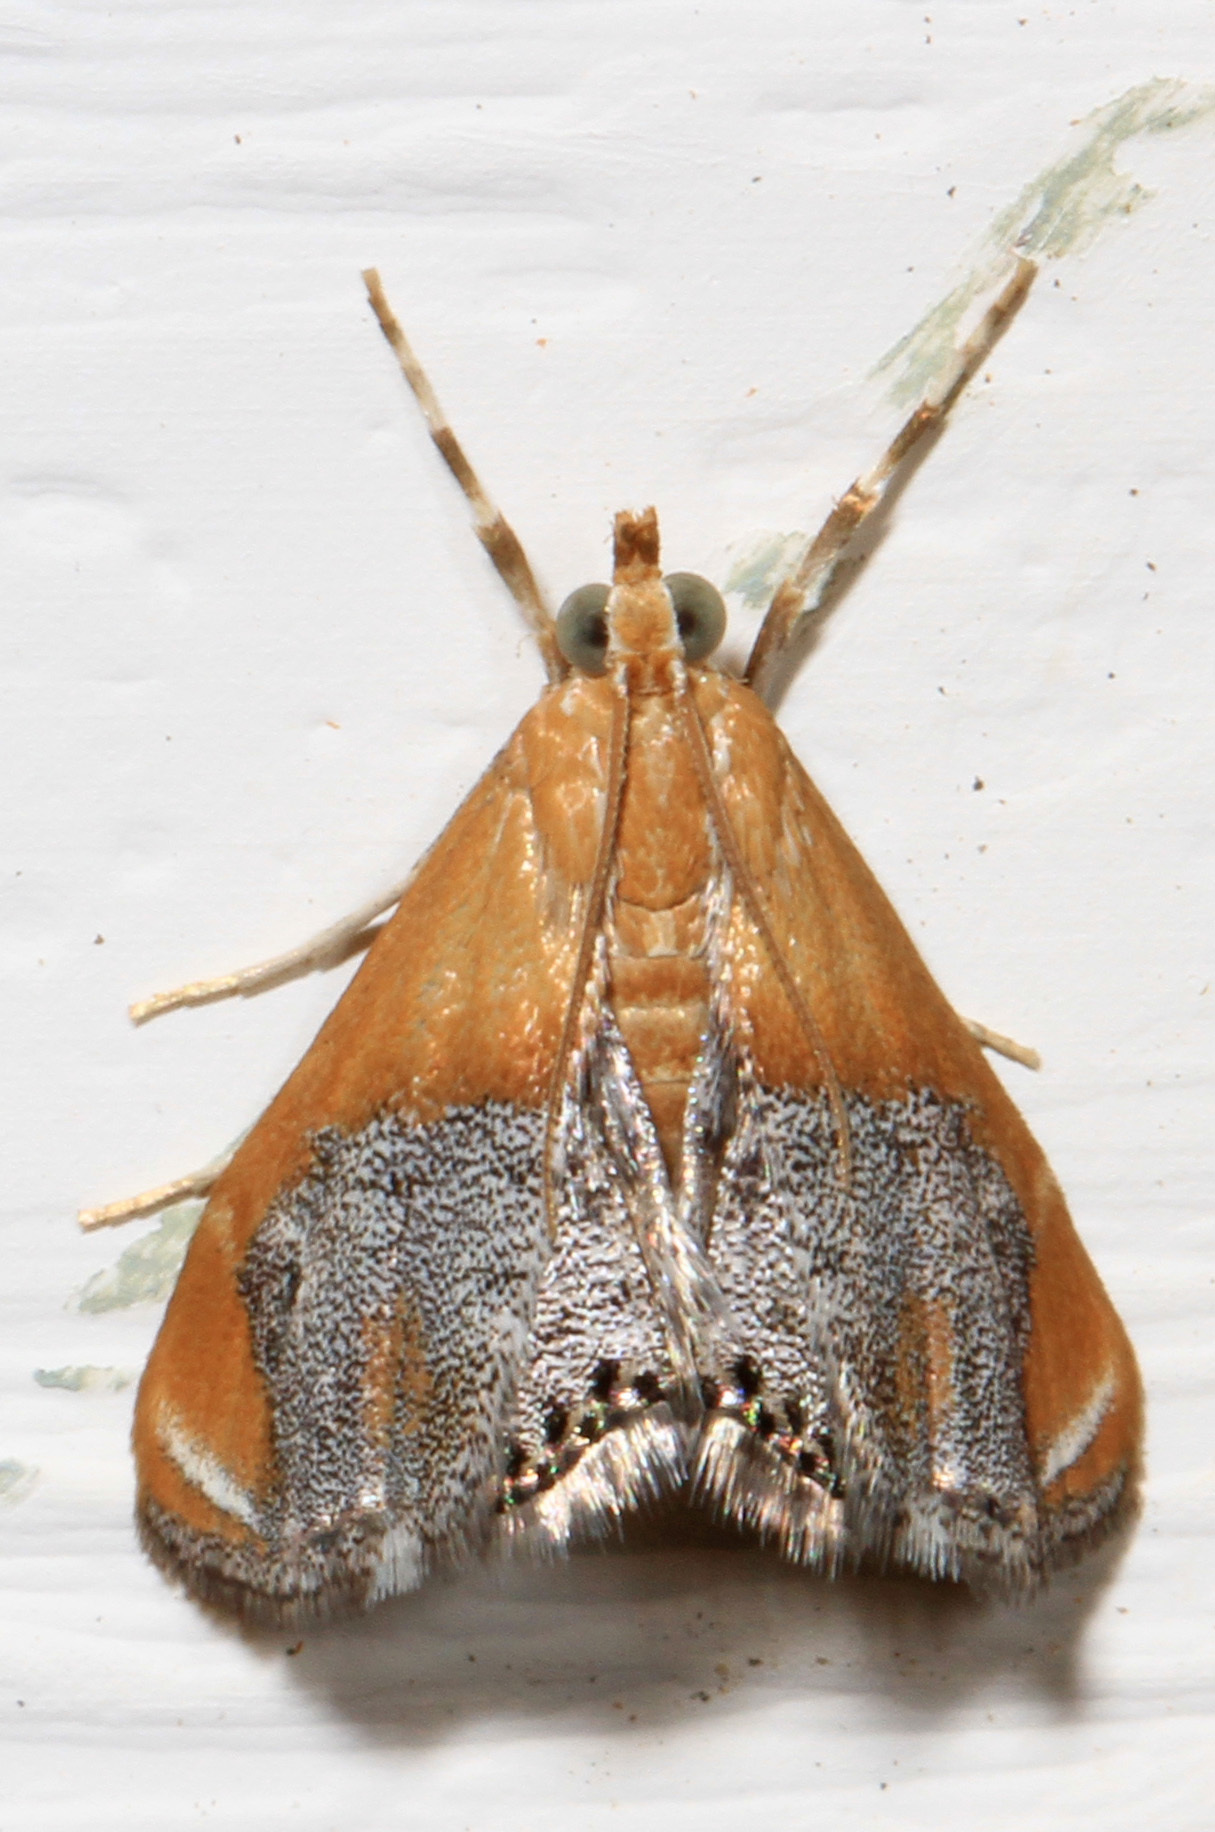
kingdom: Animalia
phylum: Arthropoda
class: Insecta
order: Lepidoptera
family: Crambidae
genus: Chalcoela
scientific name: Chalcoela iphitalis
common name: Sooty-winged chalcoela moth
